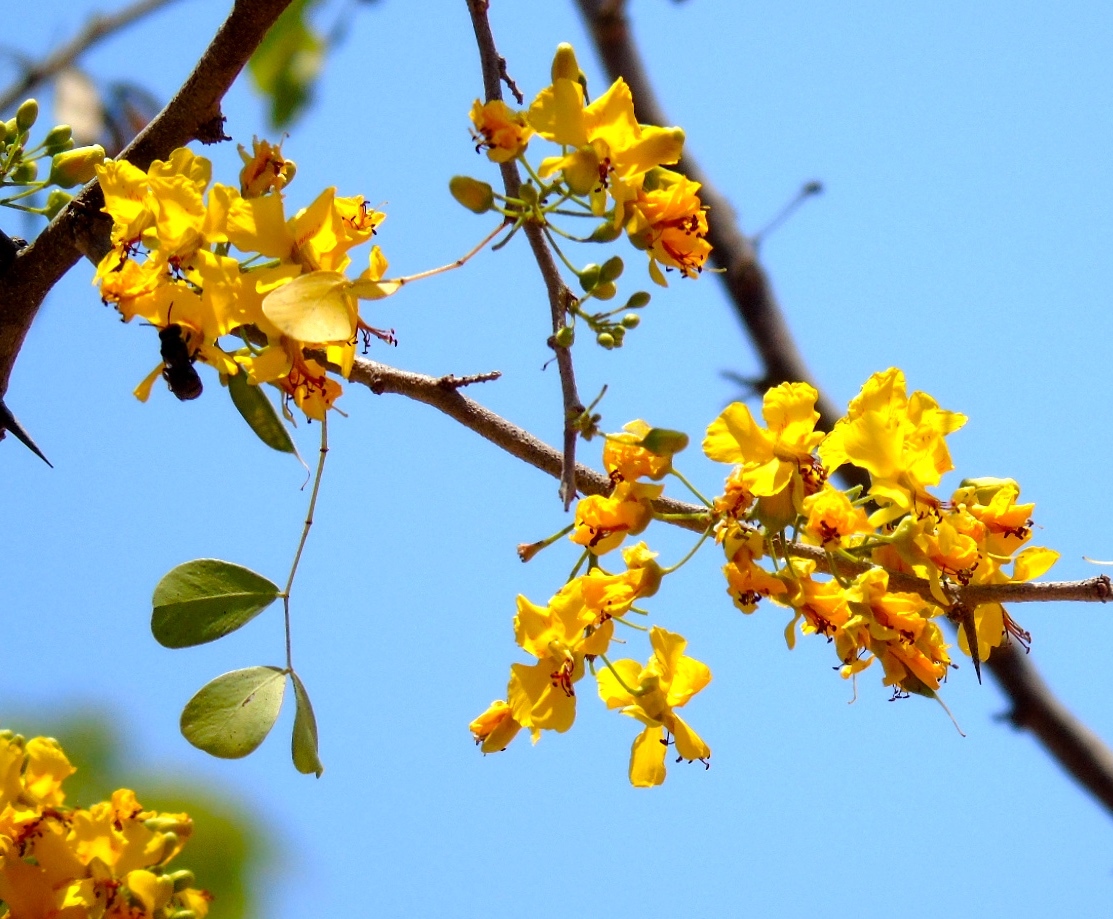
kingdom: Plantae
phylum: Tracheophyta
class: Magnoliopsida
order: Fabales
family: Fabaceae
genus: Haematoxylum
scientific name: Haematoxylum brasiletto
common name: Peachwood
